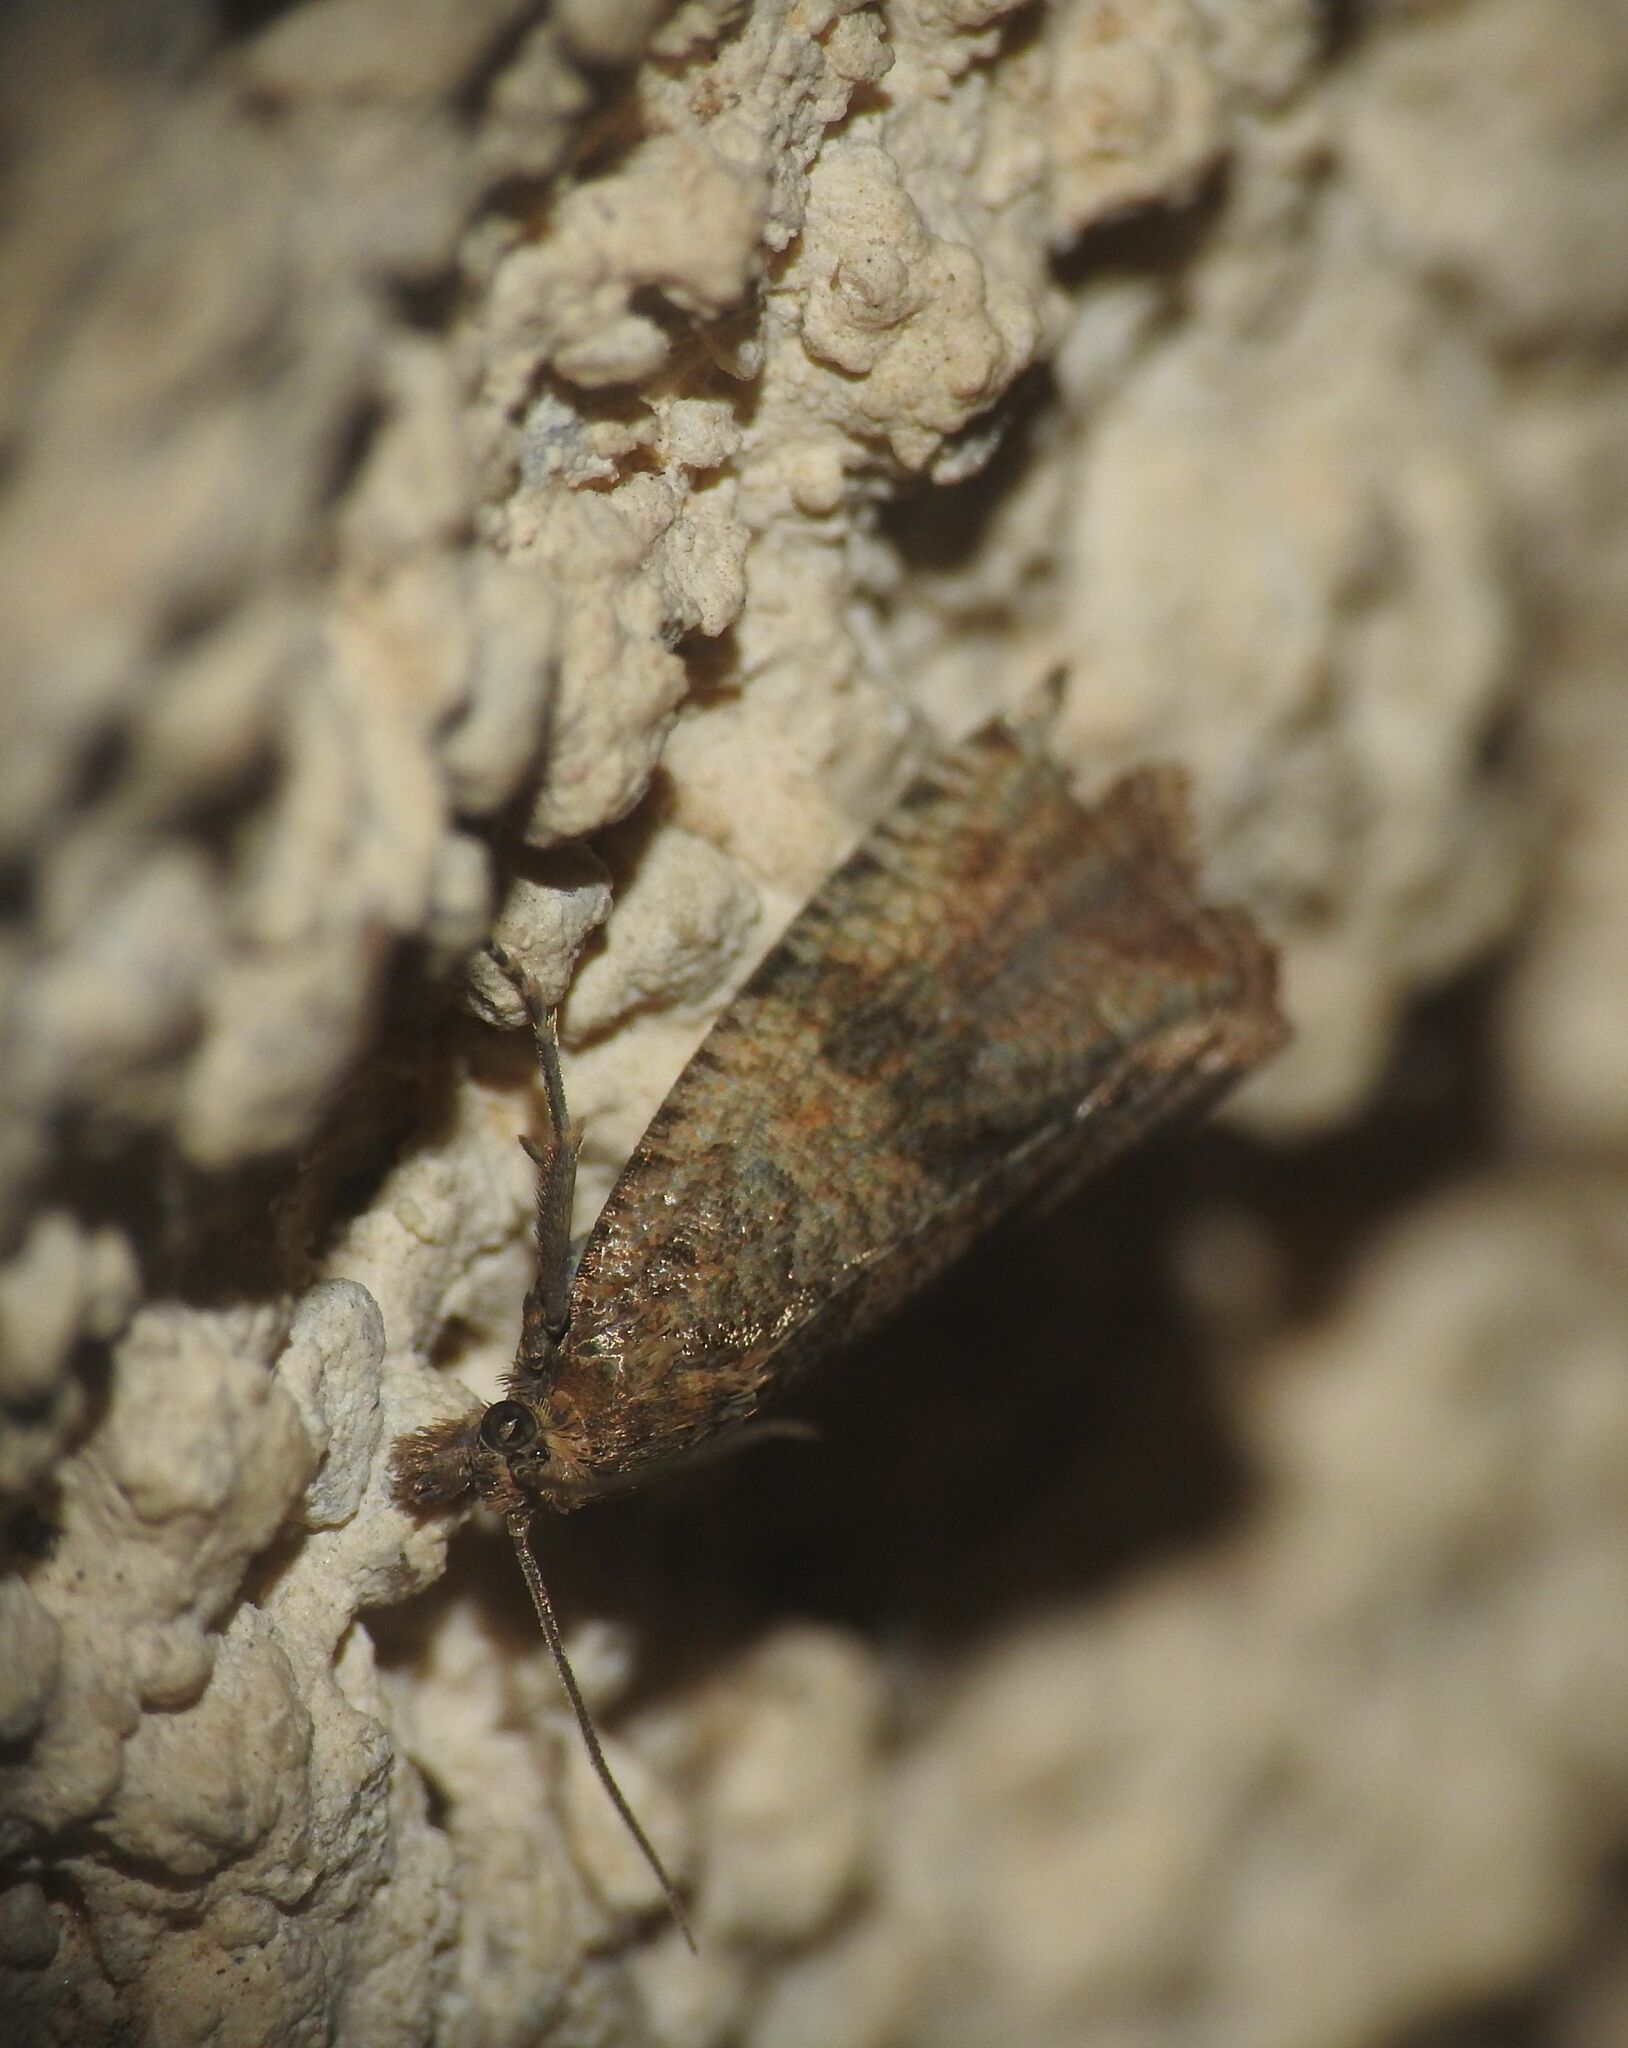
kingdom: Animalia
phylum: Arthropoda
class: Insecta
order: Lepidoptera
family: Tortricidae
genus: Celypha
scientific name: Celypha striana
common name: Barred marble
